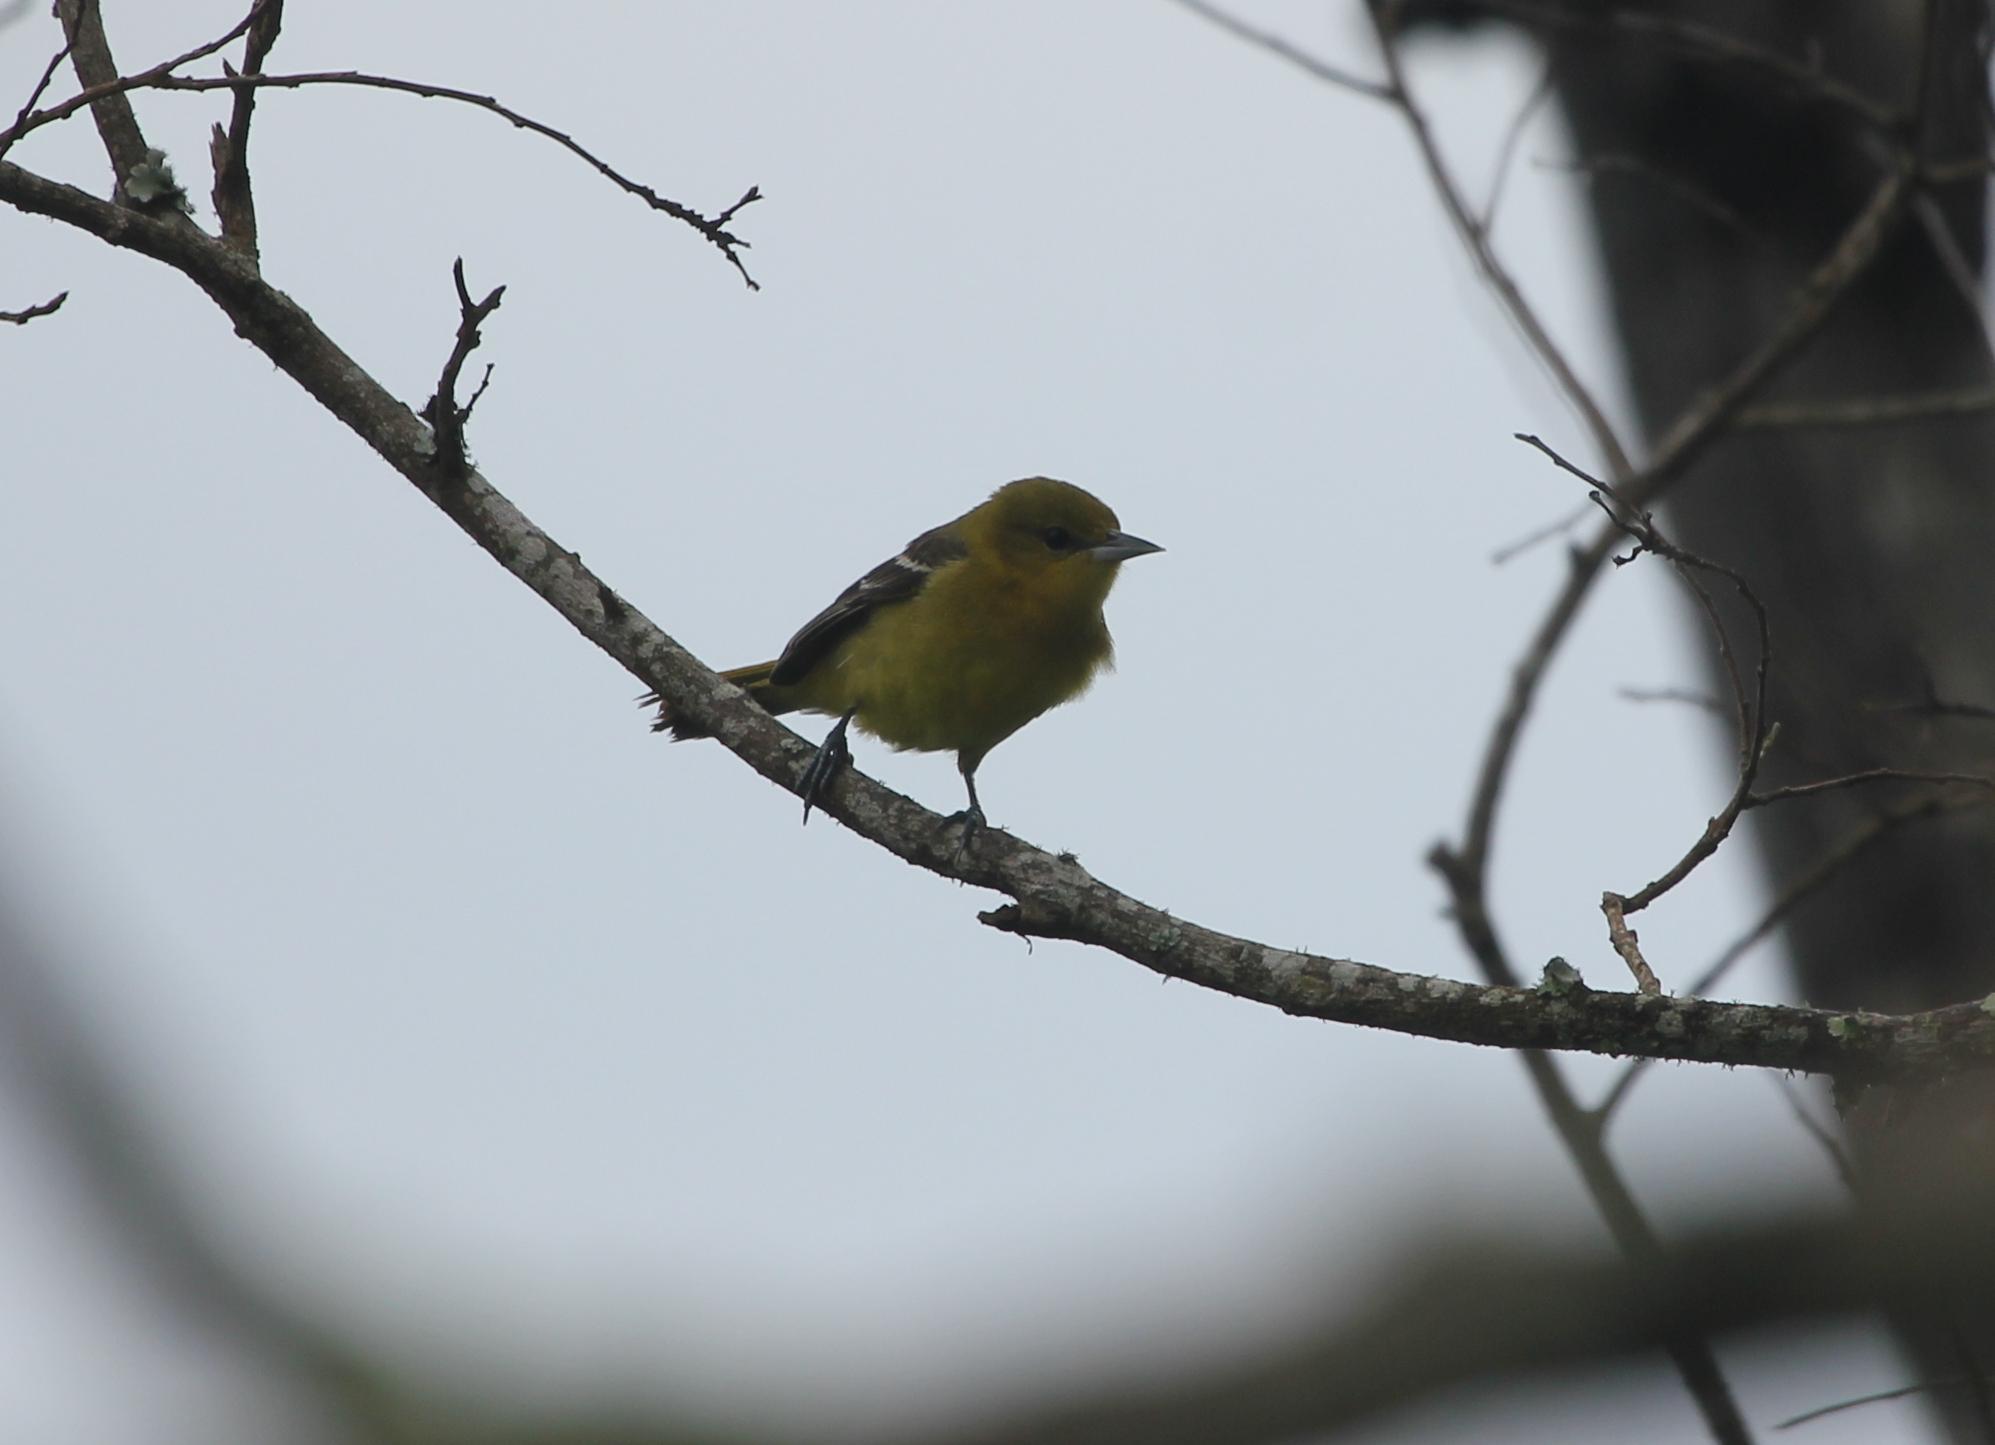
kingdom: Animalia
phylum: Chordata
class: Aves
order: Passeriformes
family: Icteridae
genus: Icterus
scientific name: Icterus spurius
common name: Orchard oriole
